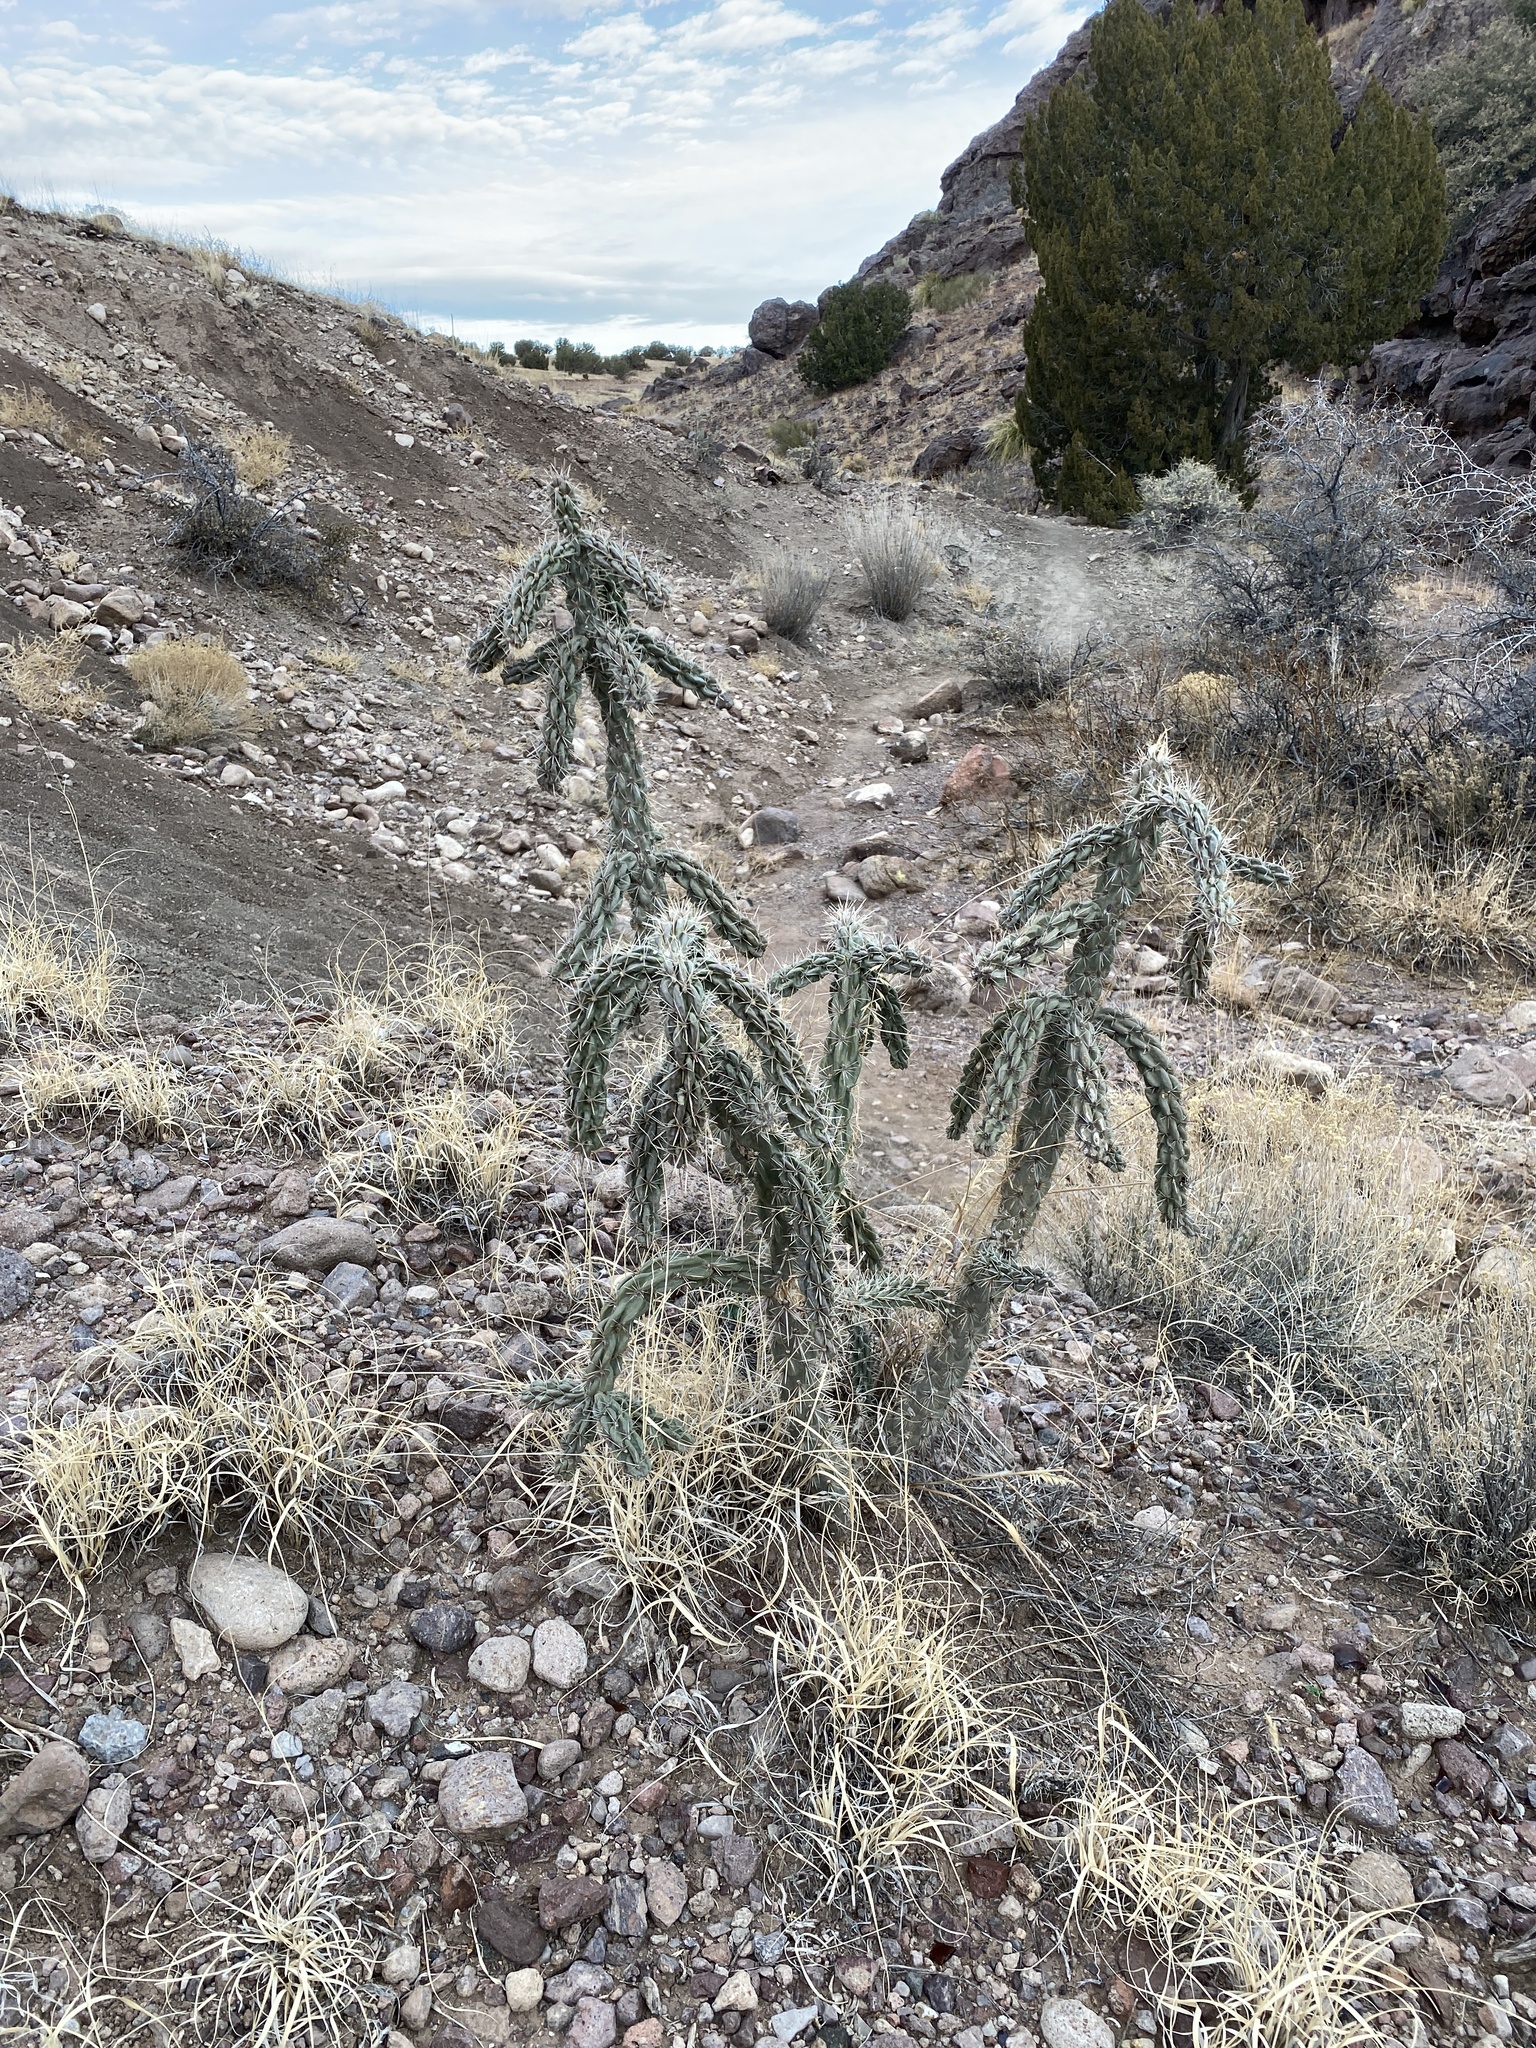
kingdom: Plantae
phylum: Tracheophyta
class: Magnoliopsida
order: Caryophyllales
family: Cactaceae
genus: Cylindropuntia
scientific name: Cylindropuntia imbricata
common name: Candelabrum cactus
